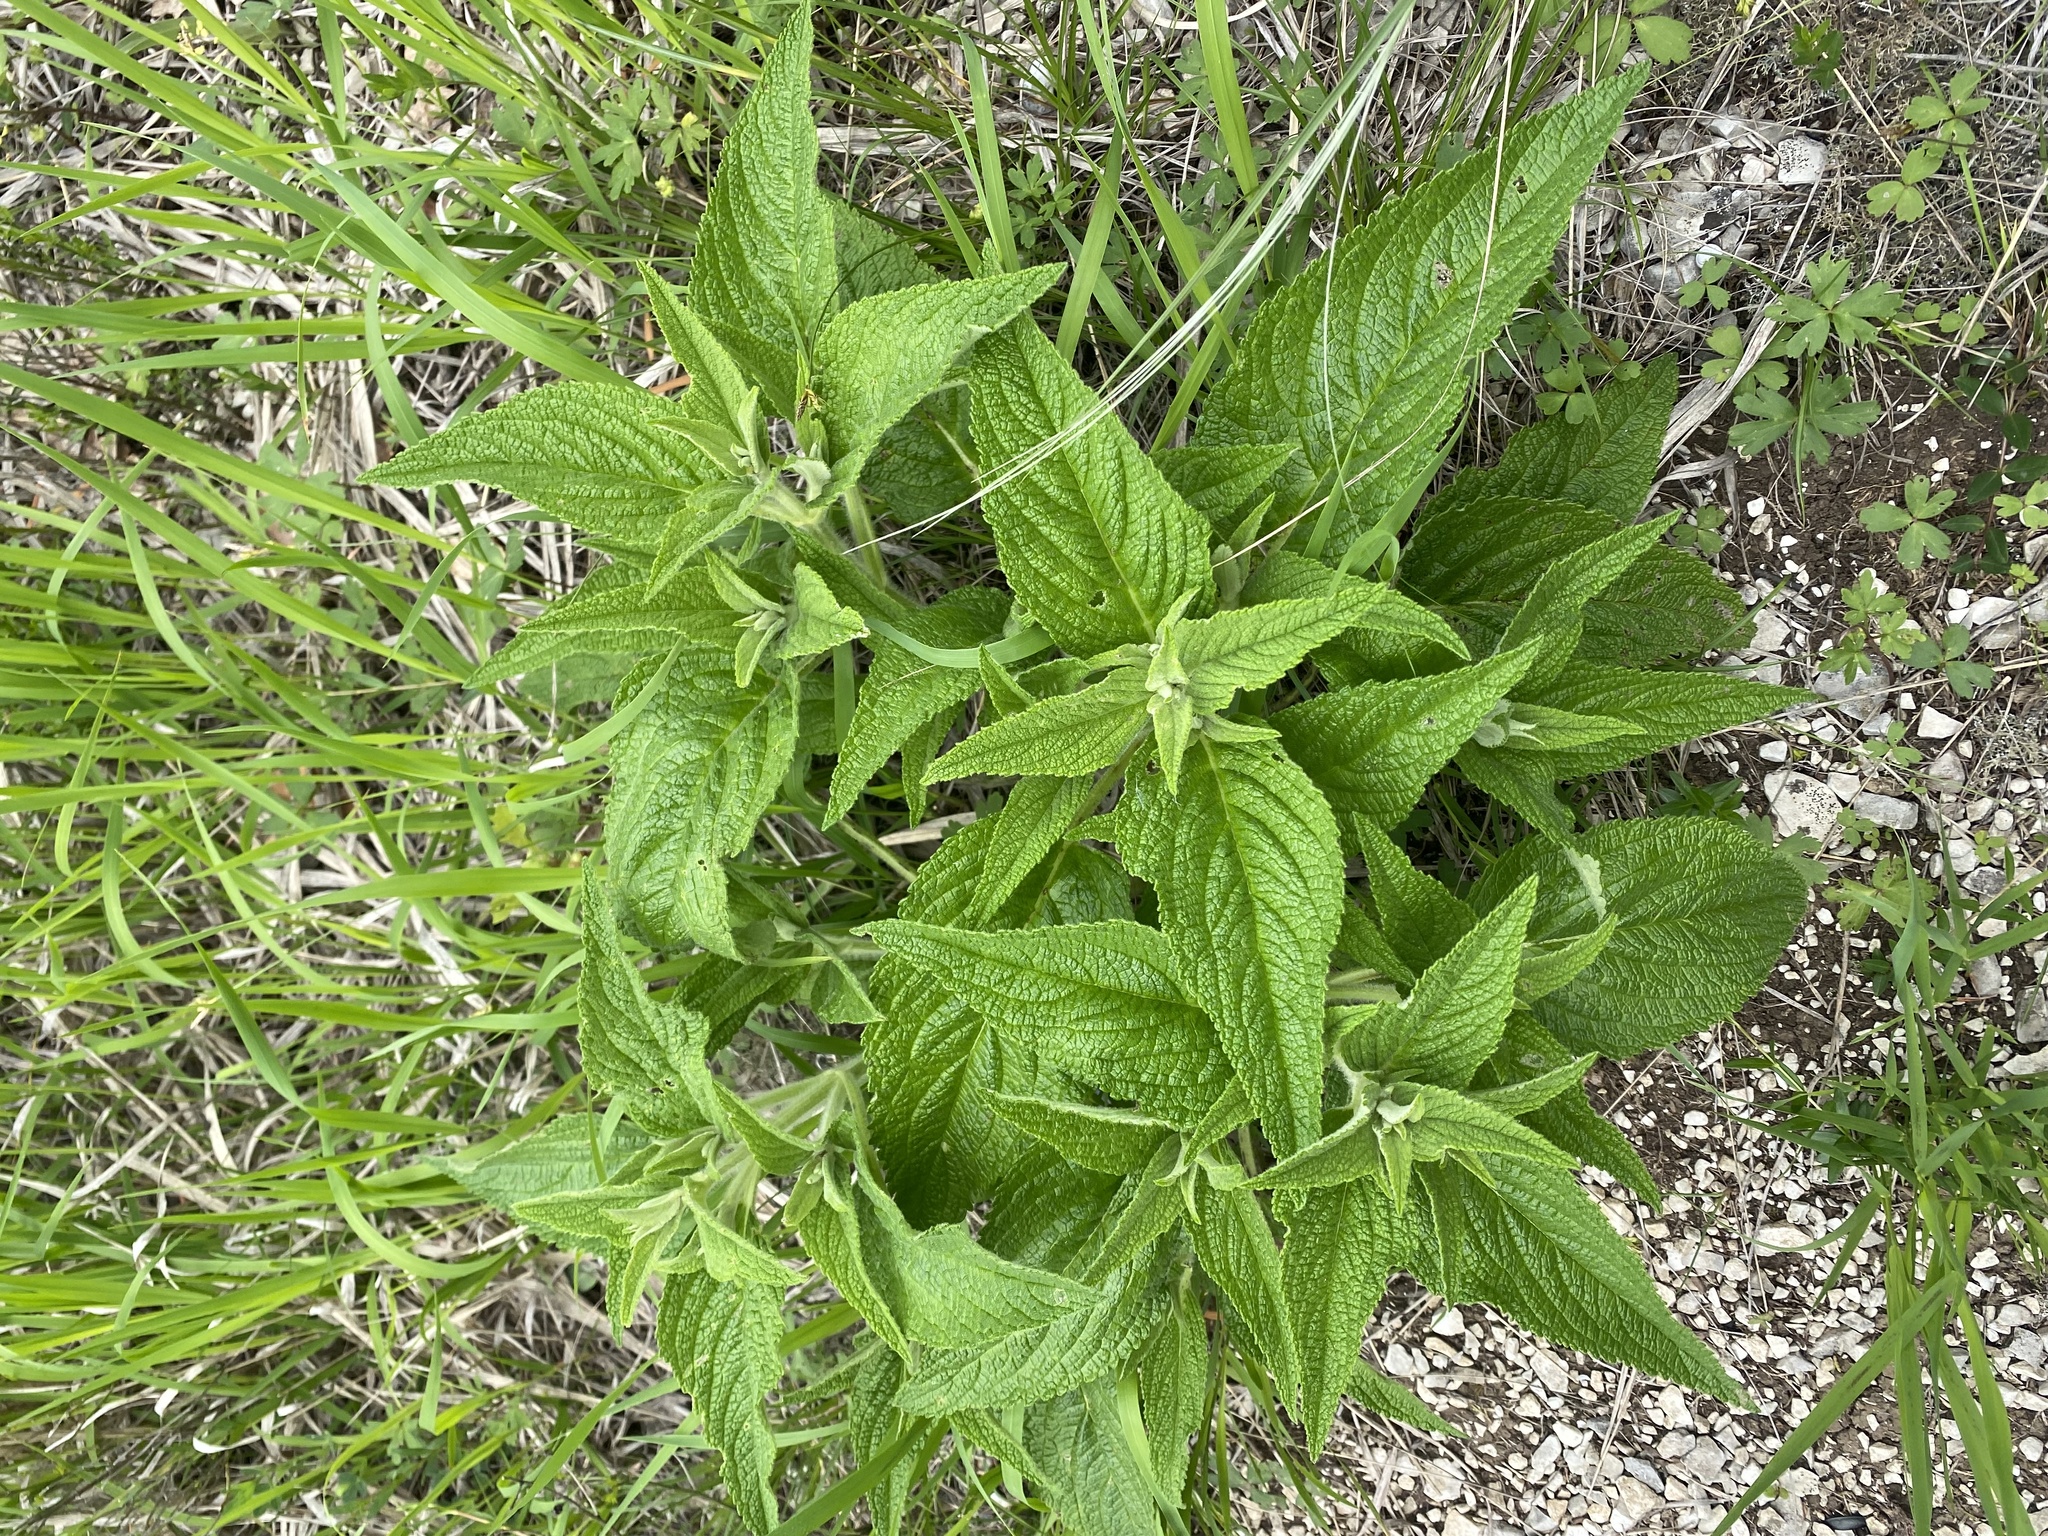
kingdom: Plantae
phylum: Tracheophyta
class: Magnoliopsida
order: Lamiales
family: Lamiaceae
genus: Phlomis
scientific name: Phlomis herba-venti
